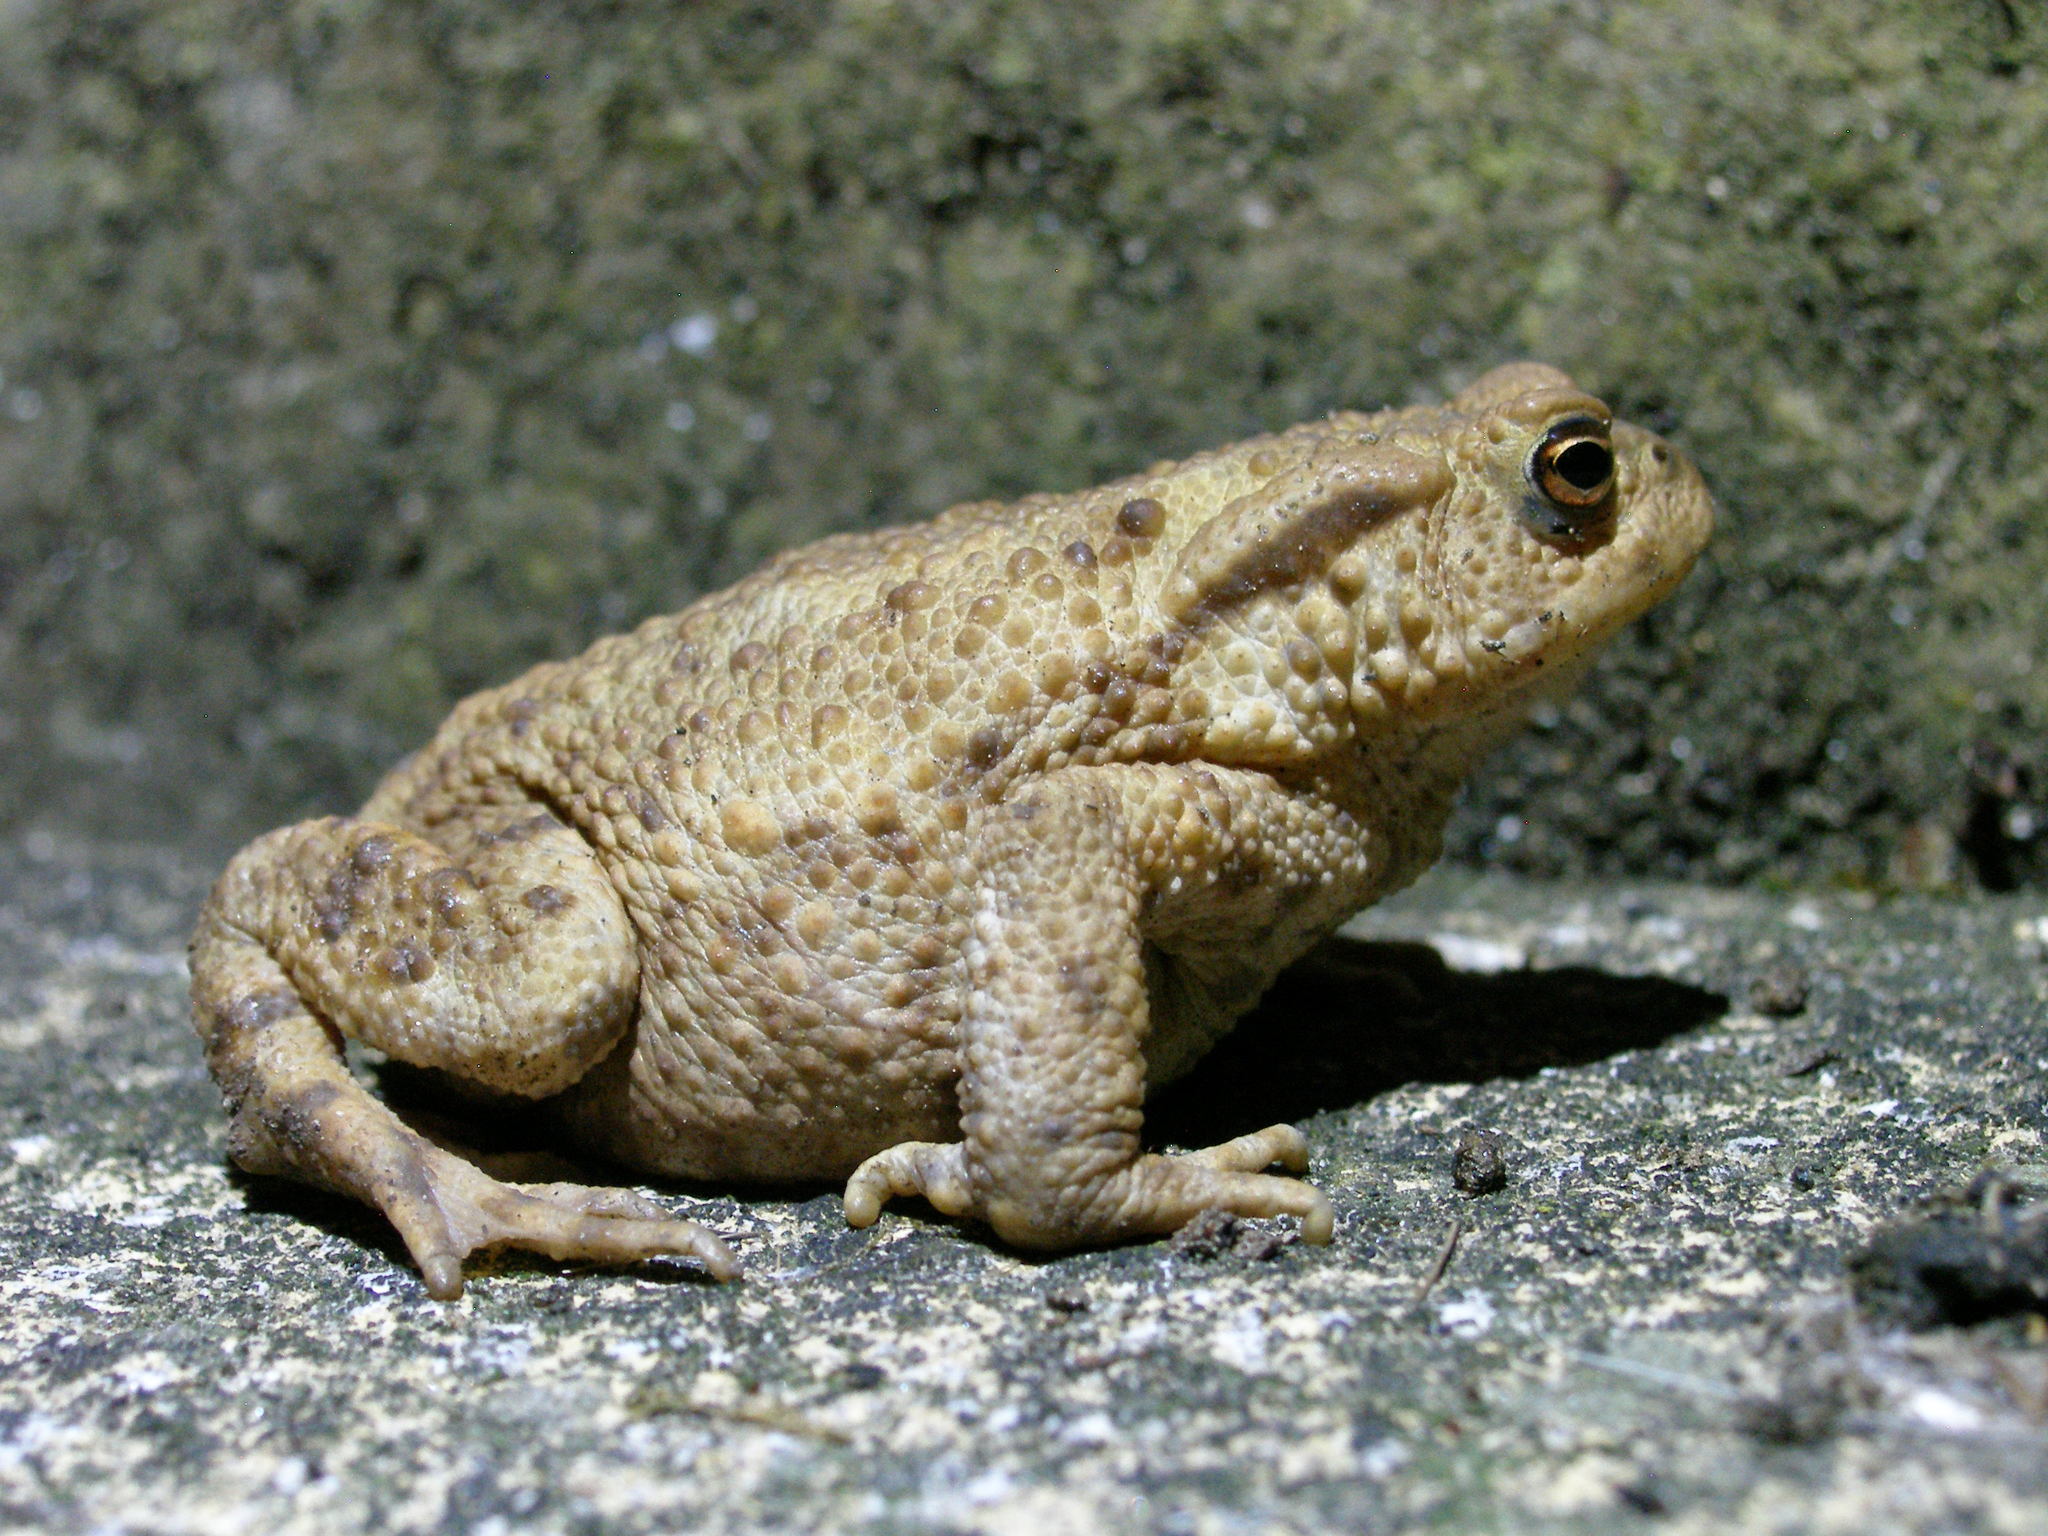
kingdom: Animalia
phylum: Chordata
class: Amphibia
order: Anura
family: Bufonidae
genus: Bufo
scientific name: Bufo bufo
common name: Common toad
